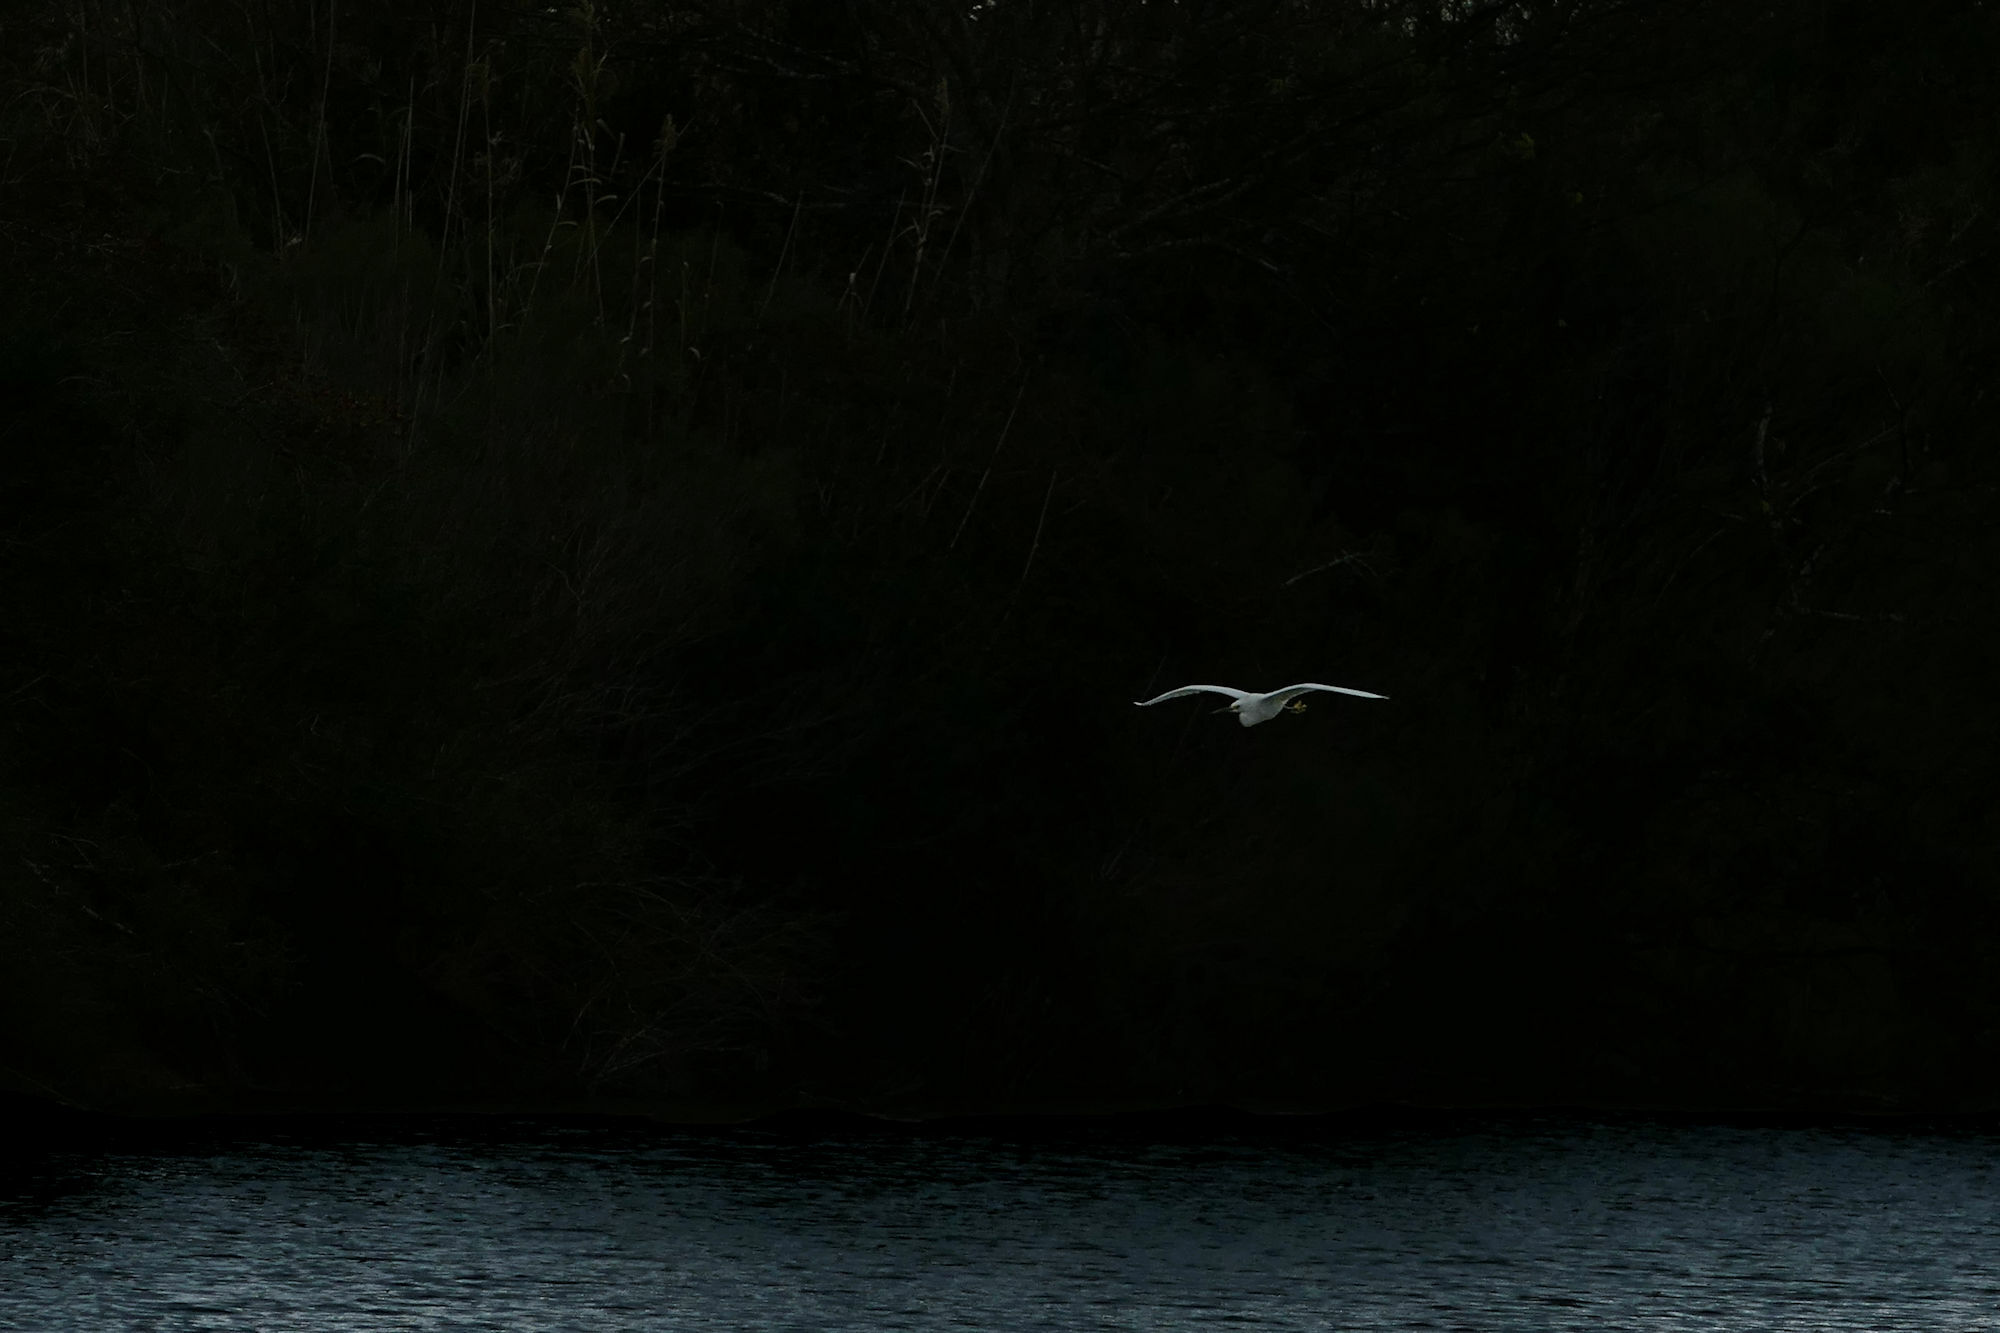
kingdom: Animalia
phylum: Chordata
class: Aves
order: Pelecaniformes
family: Ardeidae
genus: Egretta
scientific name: Egretta thula
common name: Snowy egret
